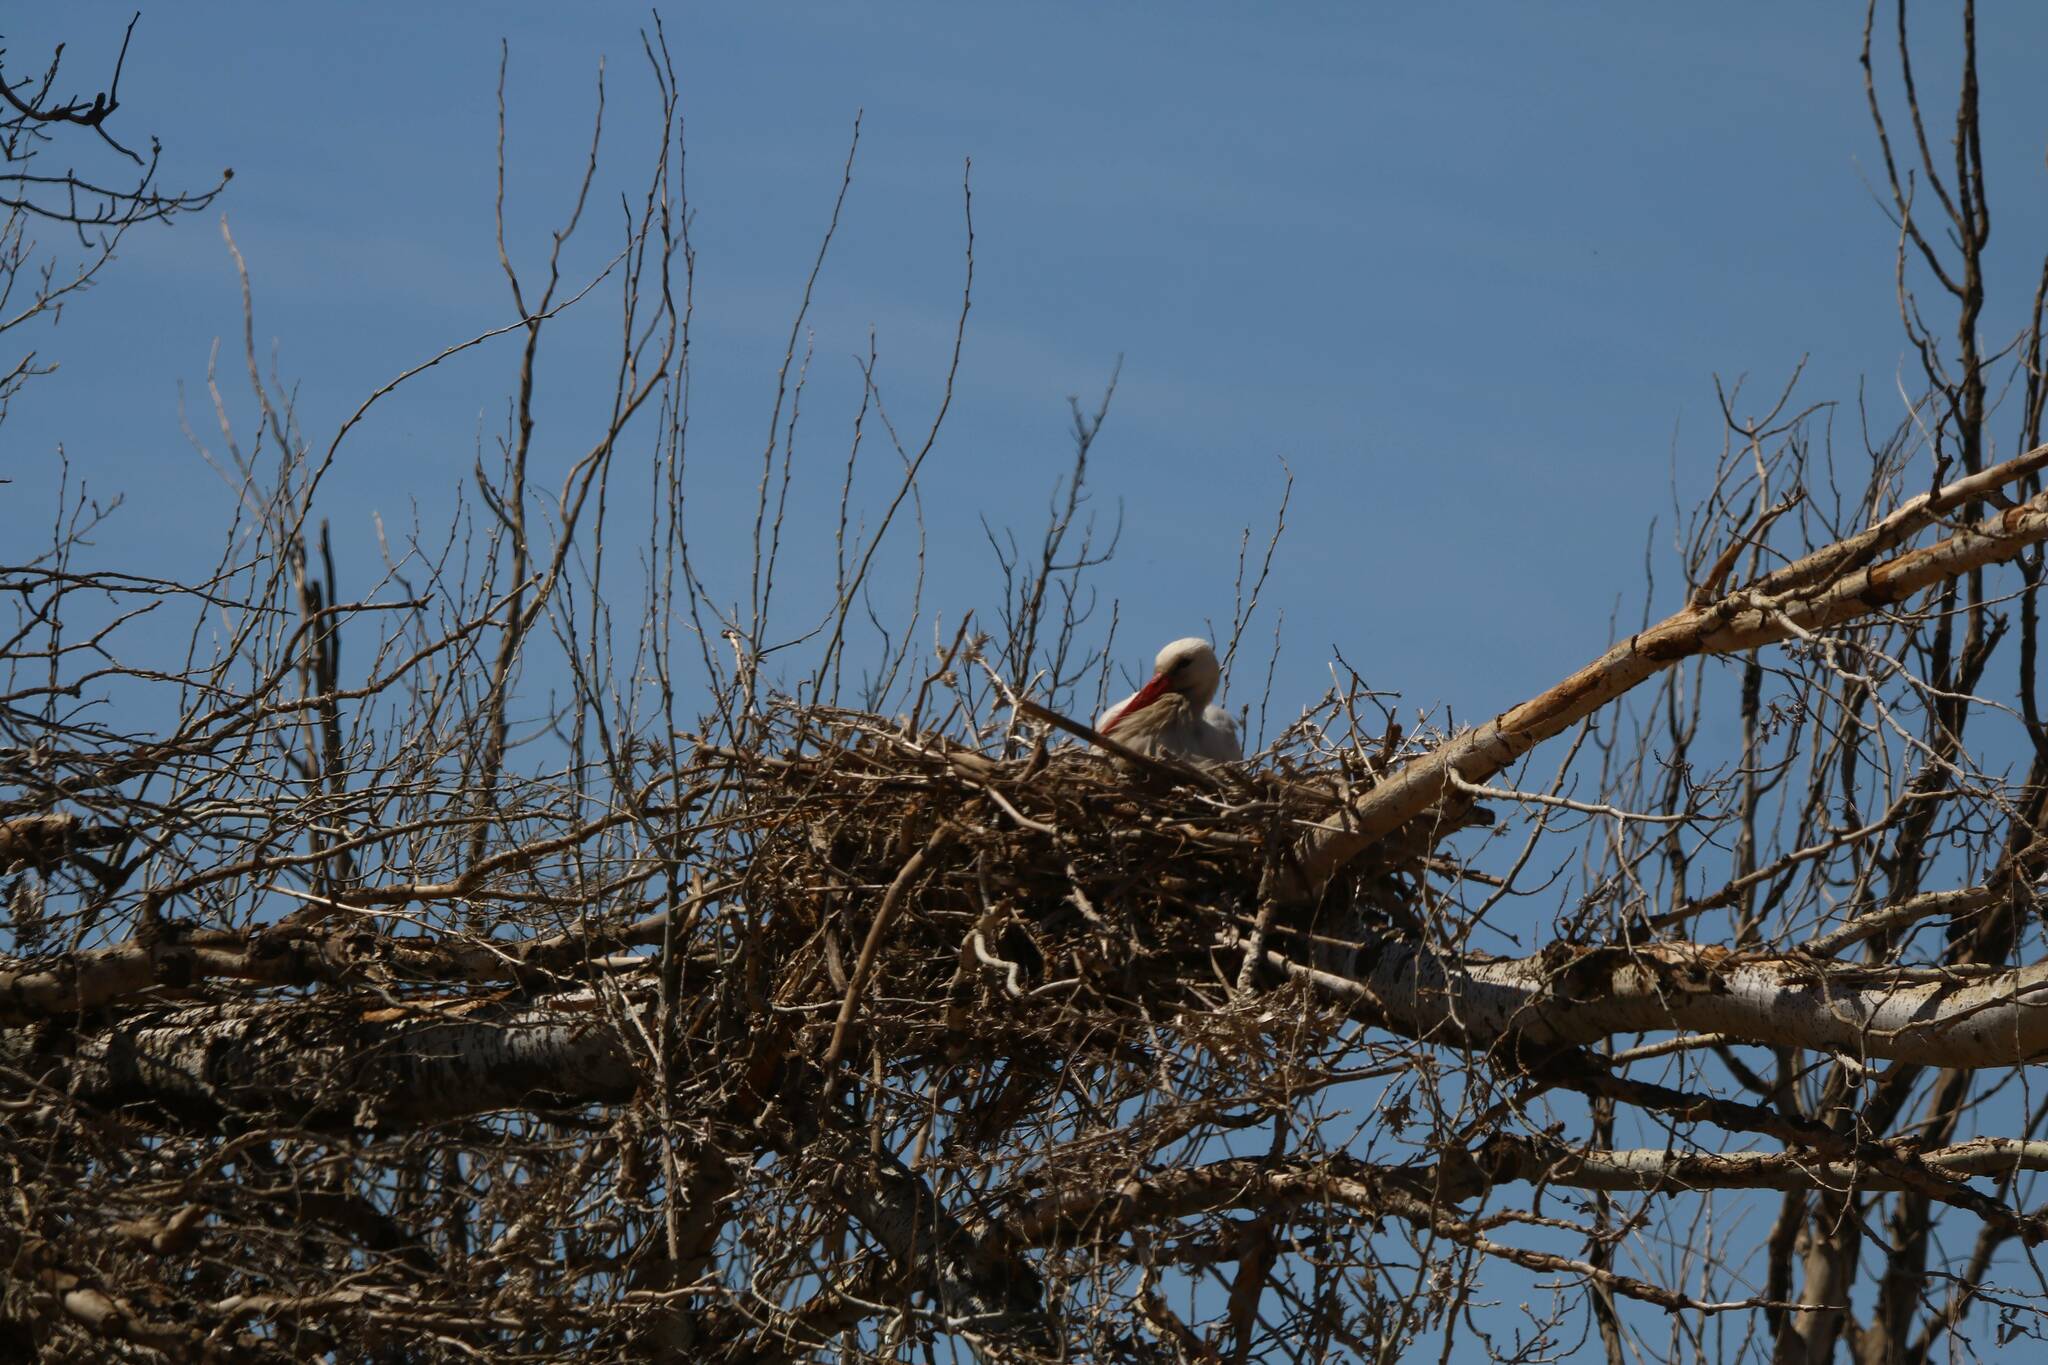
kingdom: Animalia
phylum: Chordata
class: Aves
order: Ciconiiformes
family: Ciconiidae
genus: Ciconia
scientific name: Ciconia ciconia
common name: White stork
